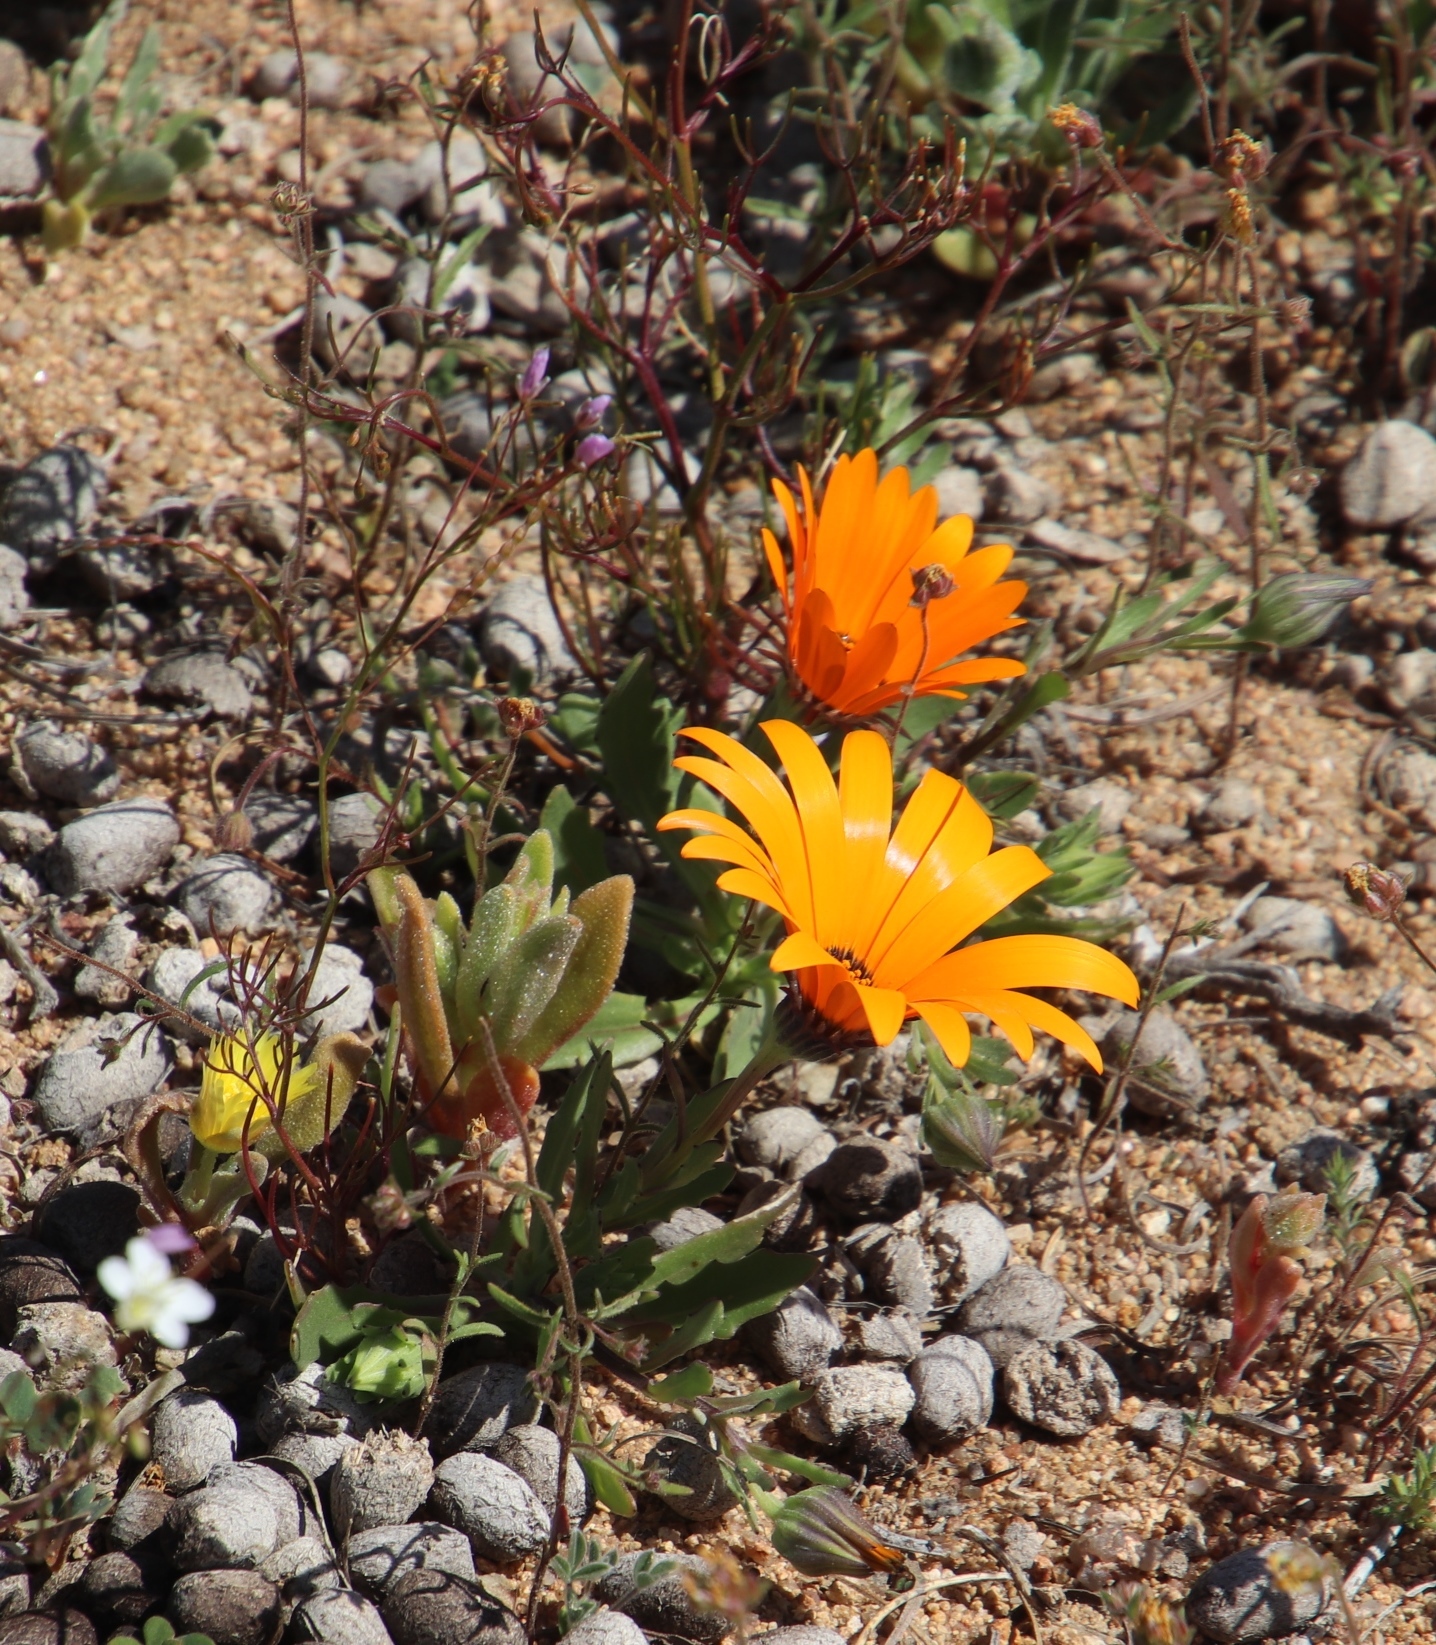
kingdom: Plantae
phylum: Tracheophyta
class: Magnoliopsida
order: Asterales
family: Asteraceae
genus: Dimorphotheca
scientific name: Dimorphotheca sinuata
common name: Glandular cape marigold
